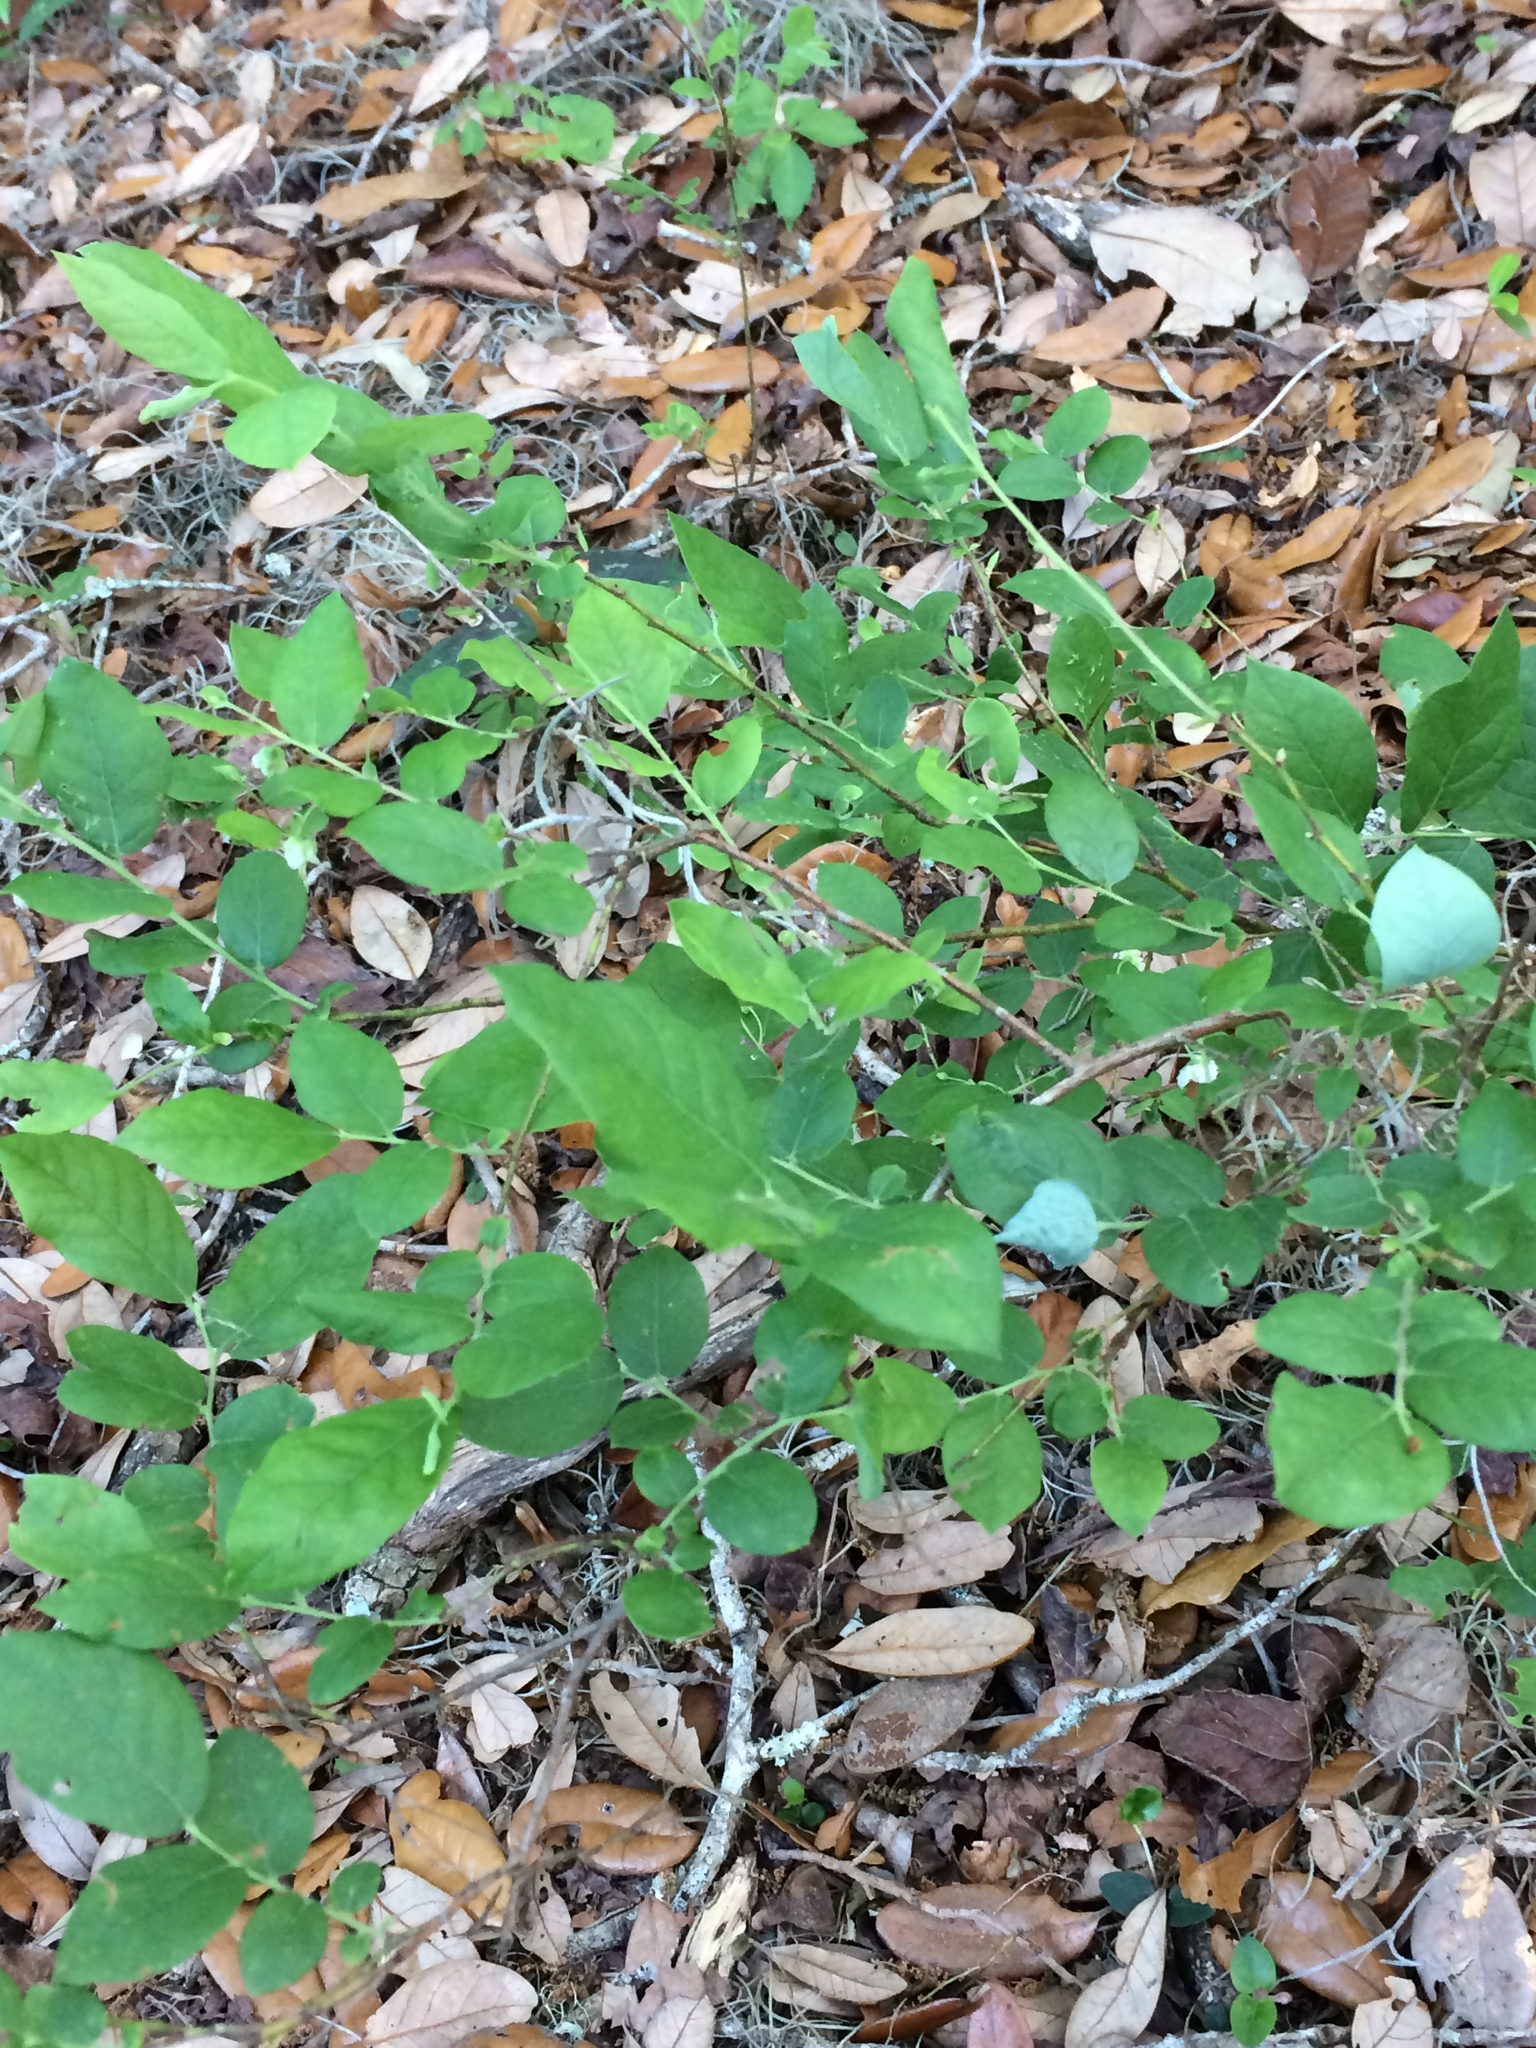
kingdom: Plantae
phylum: Tracheophyta
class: Magnoliopsida
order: Ericales
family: Ericaceae
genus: Vaccinium
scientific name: Vaccinium stamineum
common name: Deerberry
